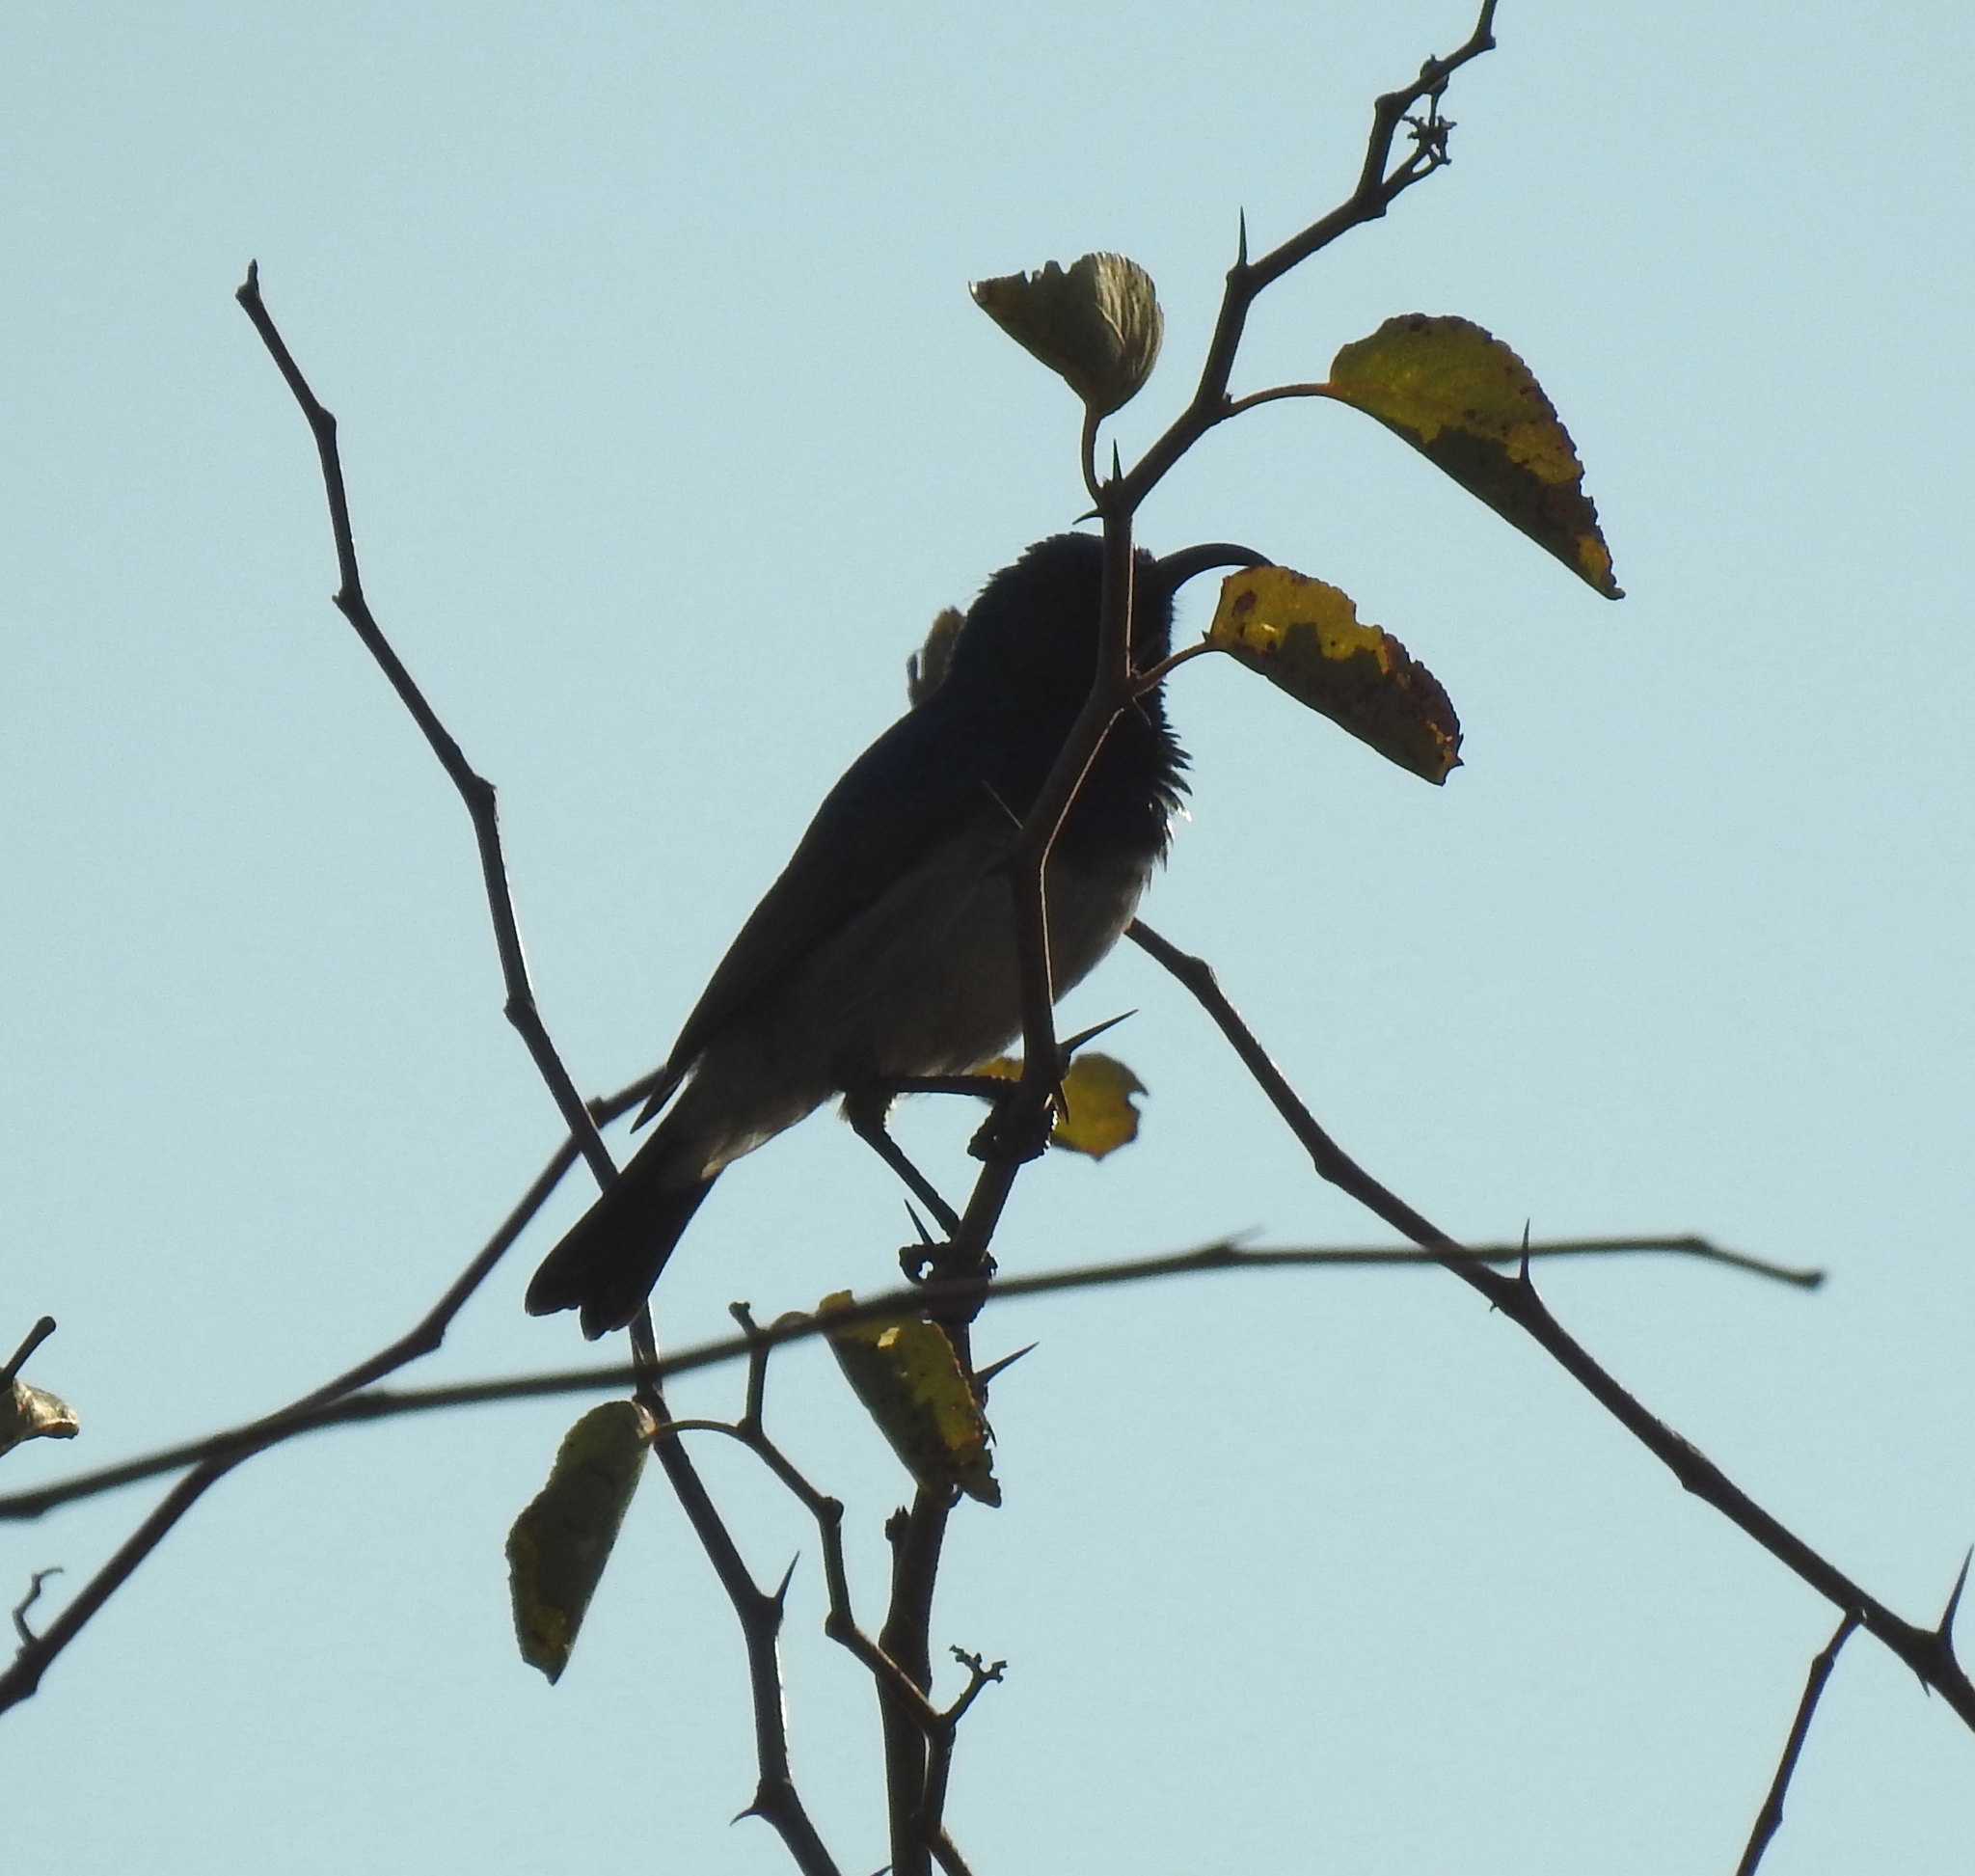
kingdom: Animalia
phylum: Chordata
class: Aves
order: Passeriformes
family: Nectariniidae
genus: Cinnyris
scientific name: Cinnyris talatala
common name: White-bellied sunbird
